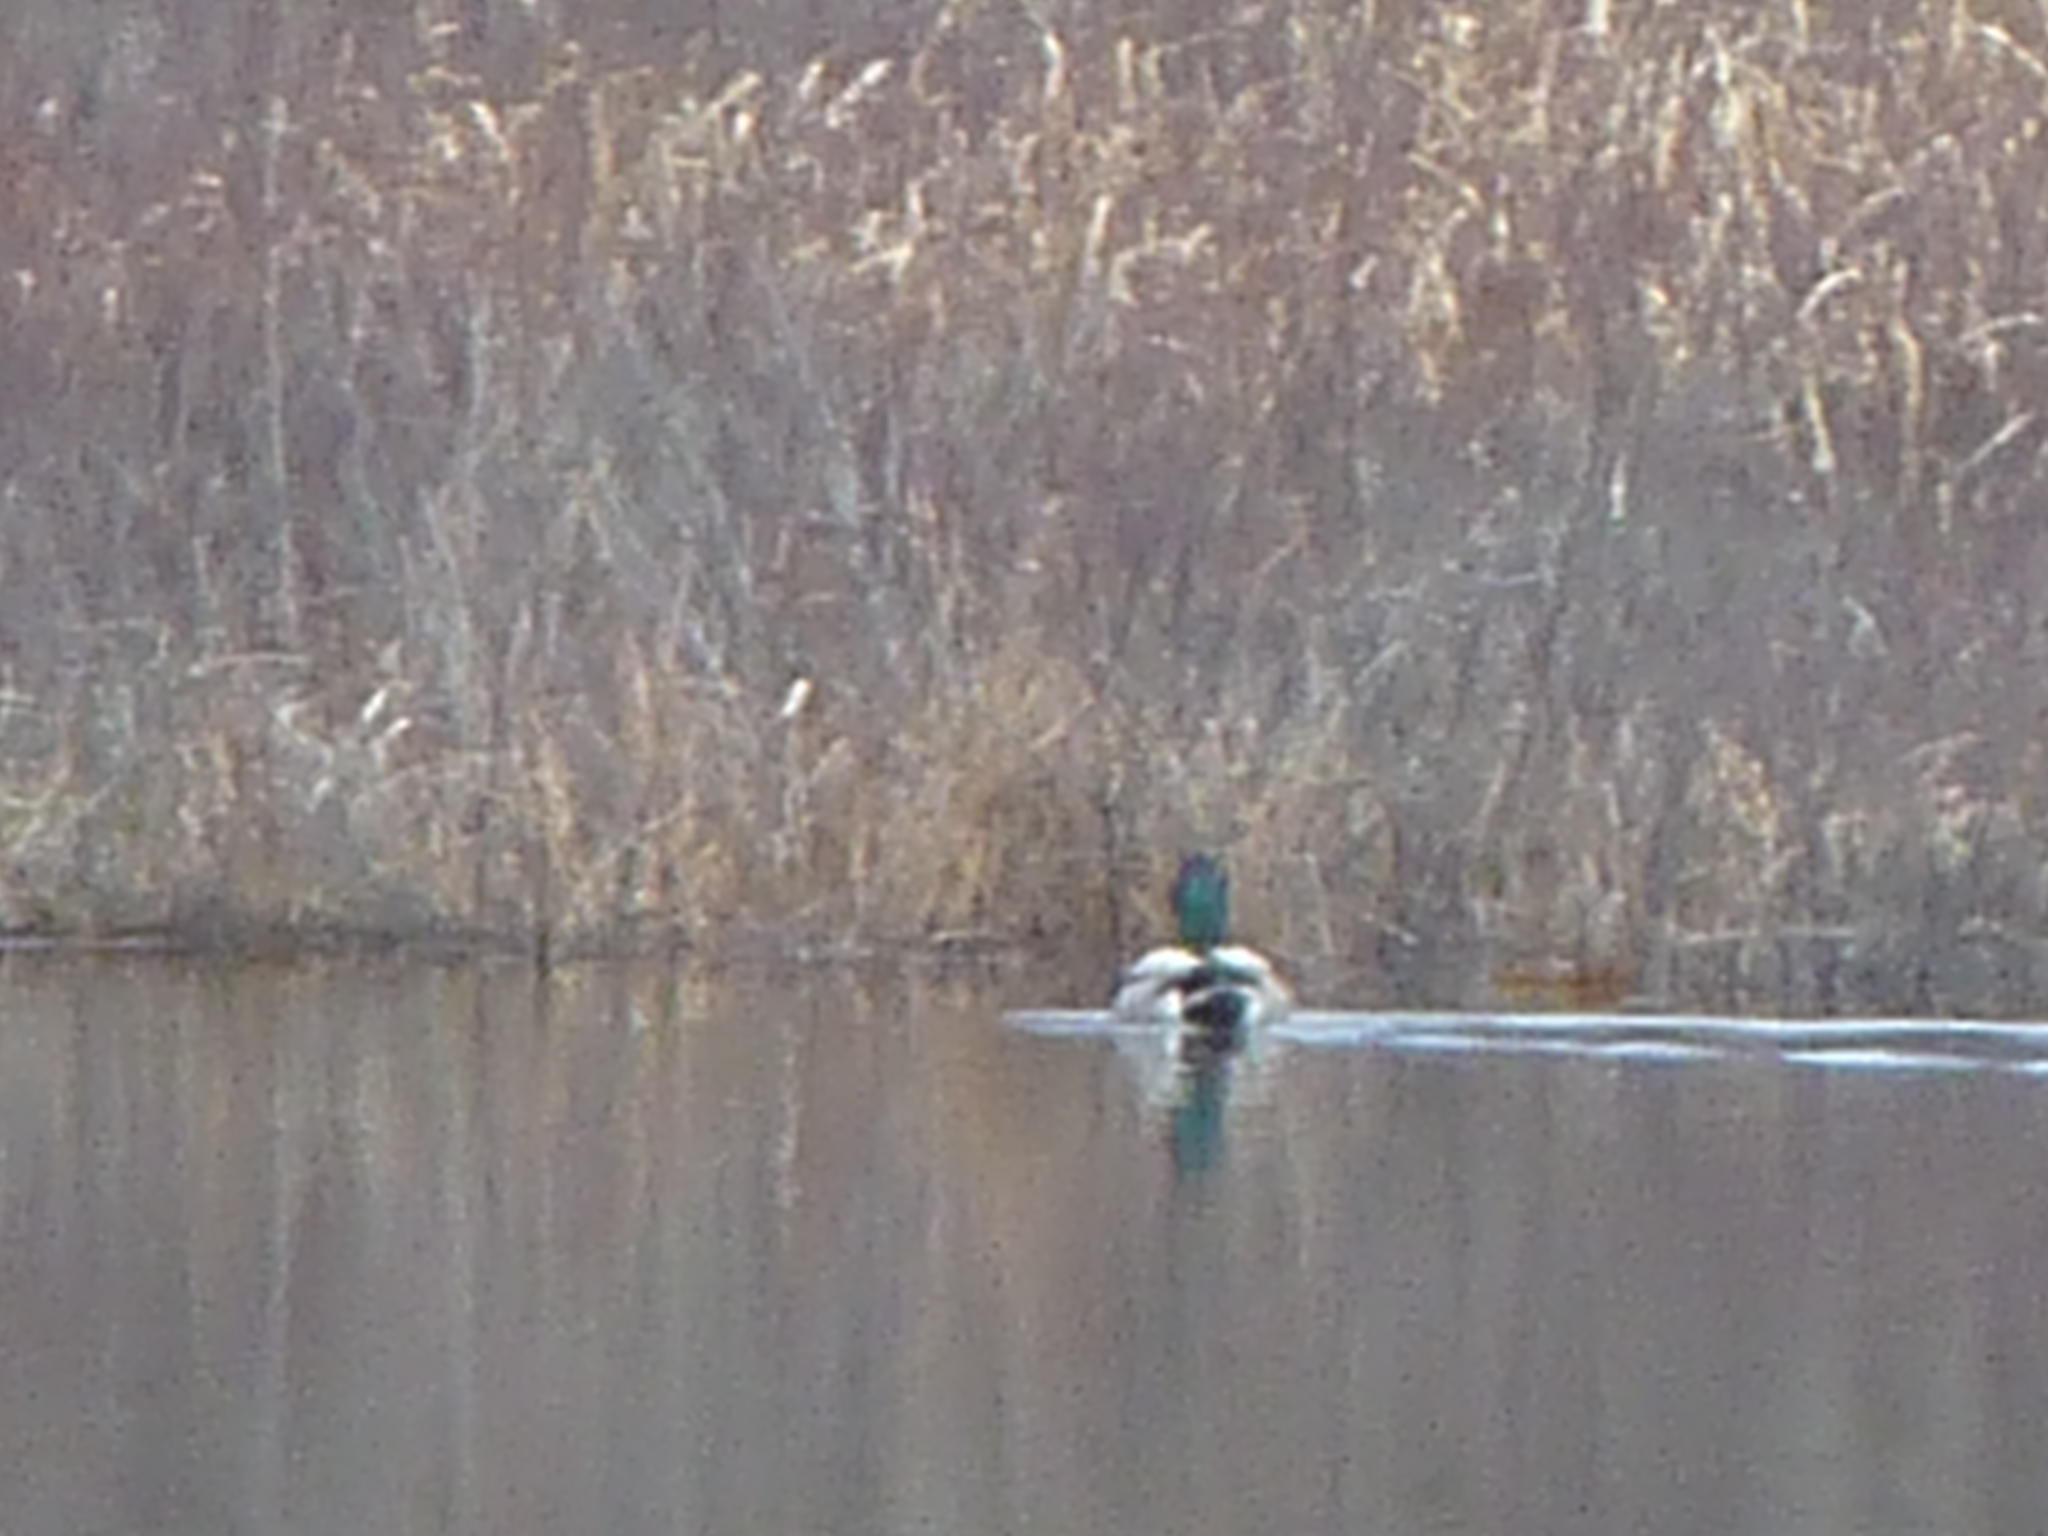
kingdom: Animalia
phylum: Chordata
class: Aves
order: Anseriformes
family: Anatidae
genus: Anas
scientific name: Anas platyrhynchos
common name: Mallard
